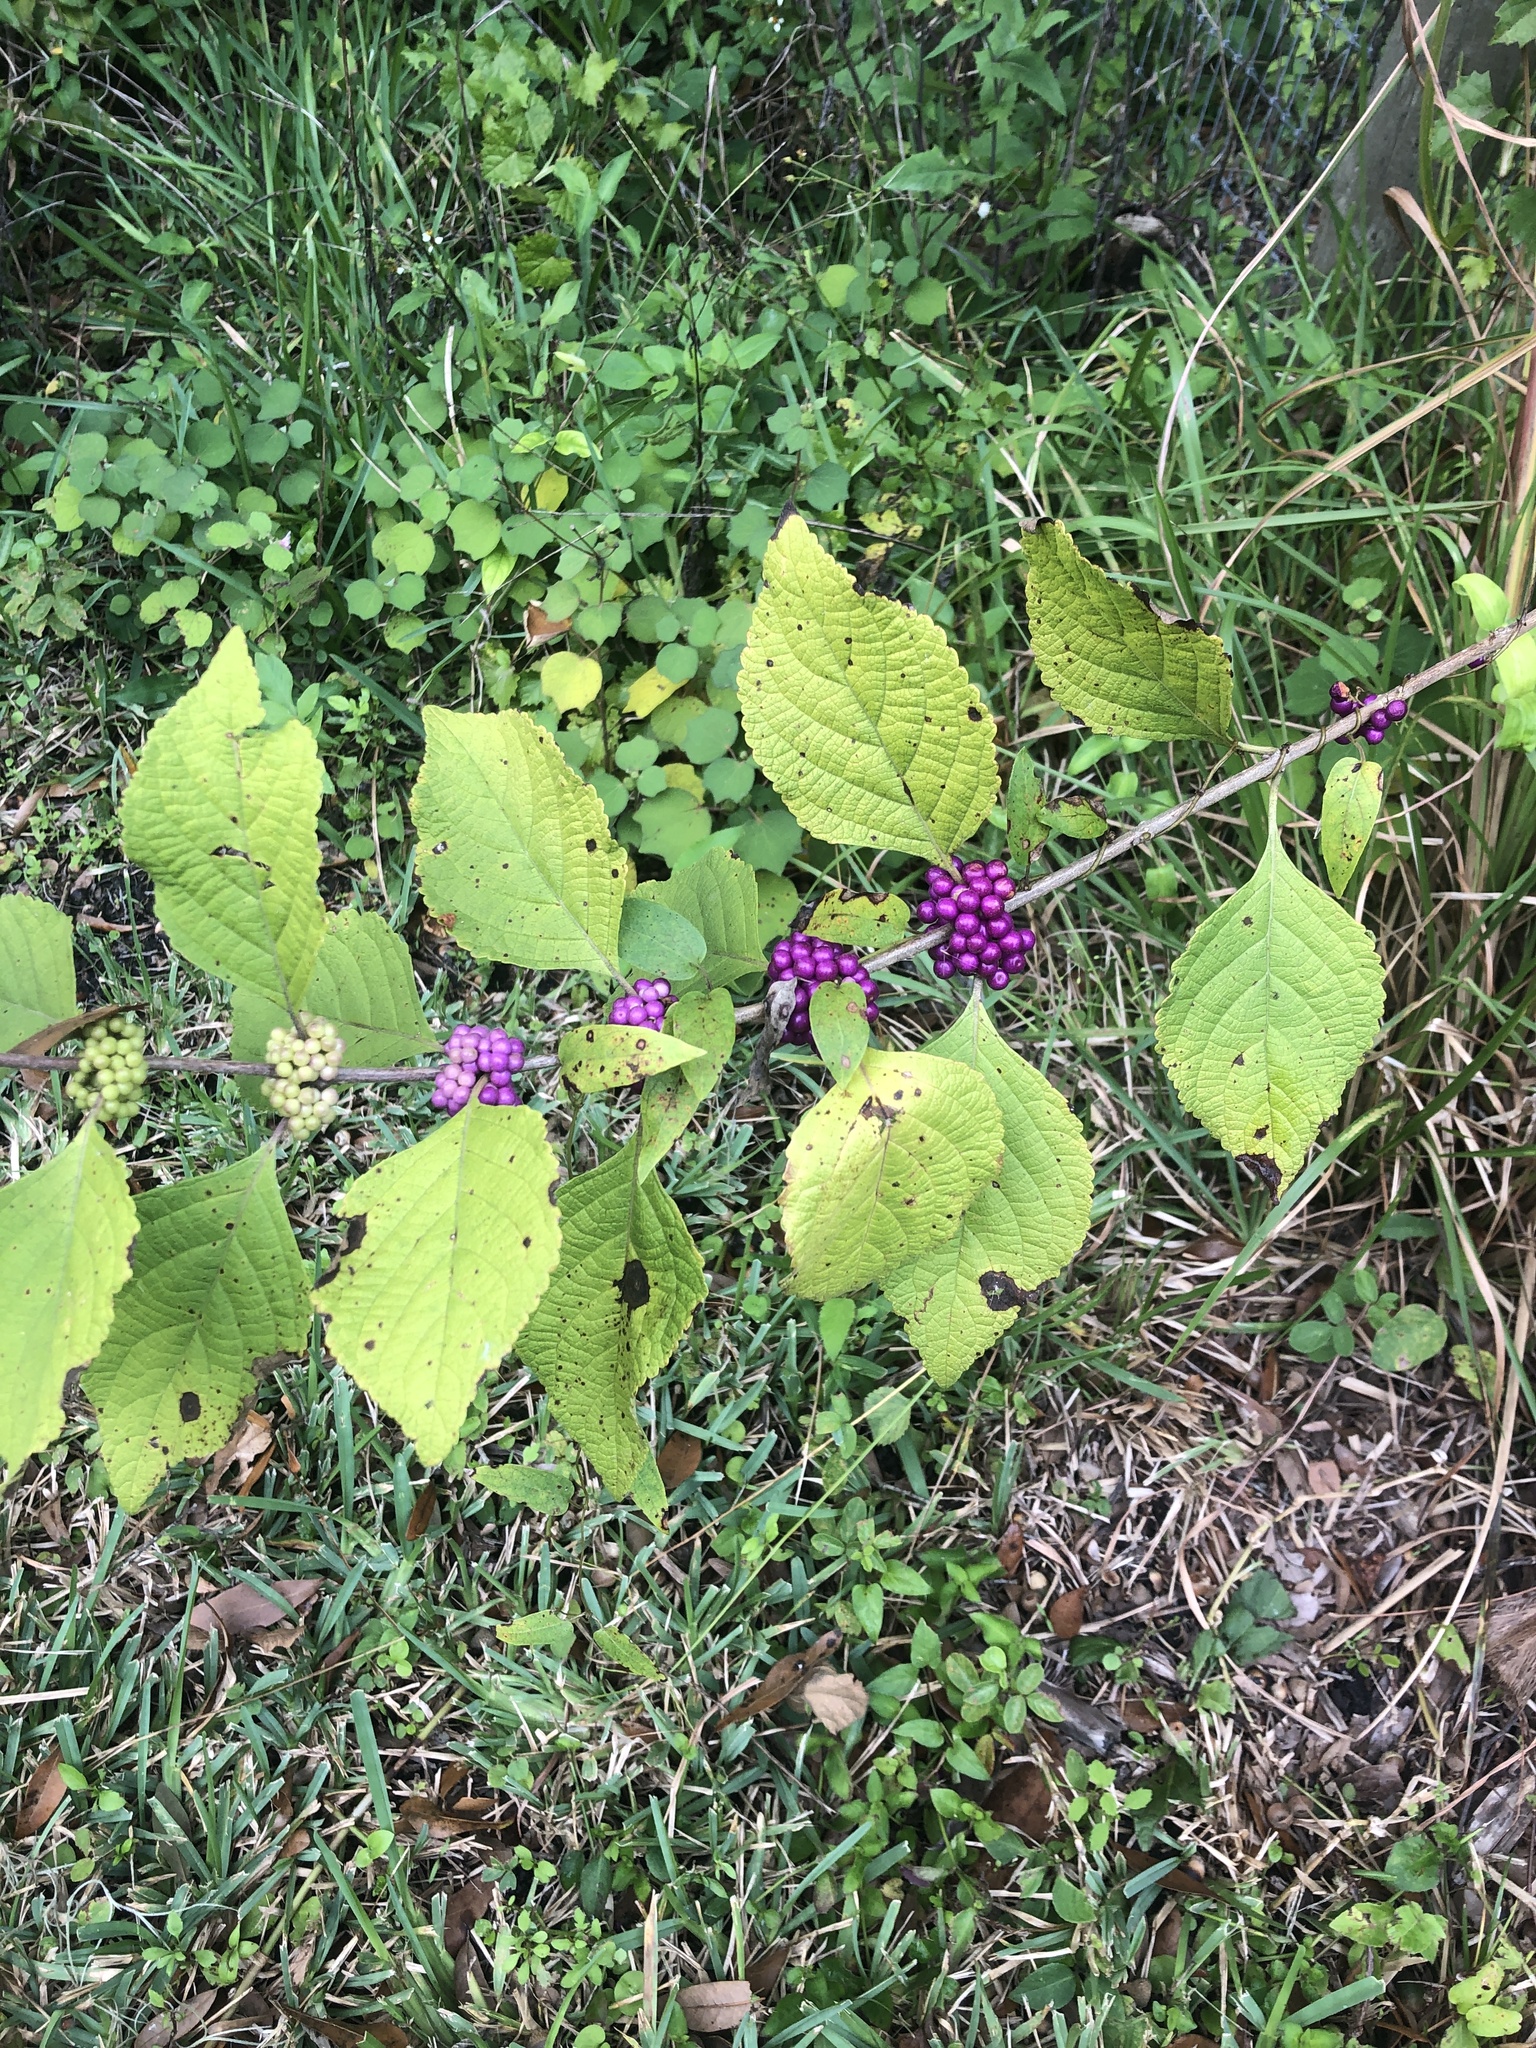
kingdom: Plantae
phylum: Tracheophyta
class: Magnoliopsida
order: Lamiales
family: Lamiaceae
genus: Callicarpa
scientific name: Callicarpa americana
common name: American beautyberry
